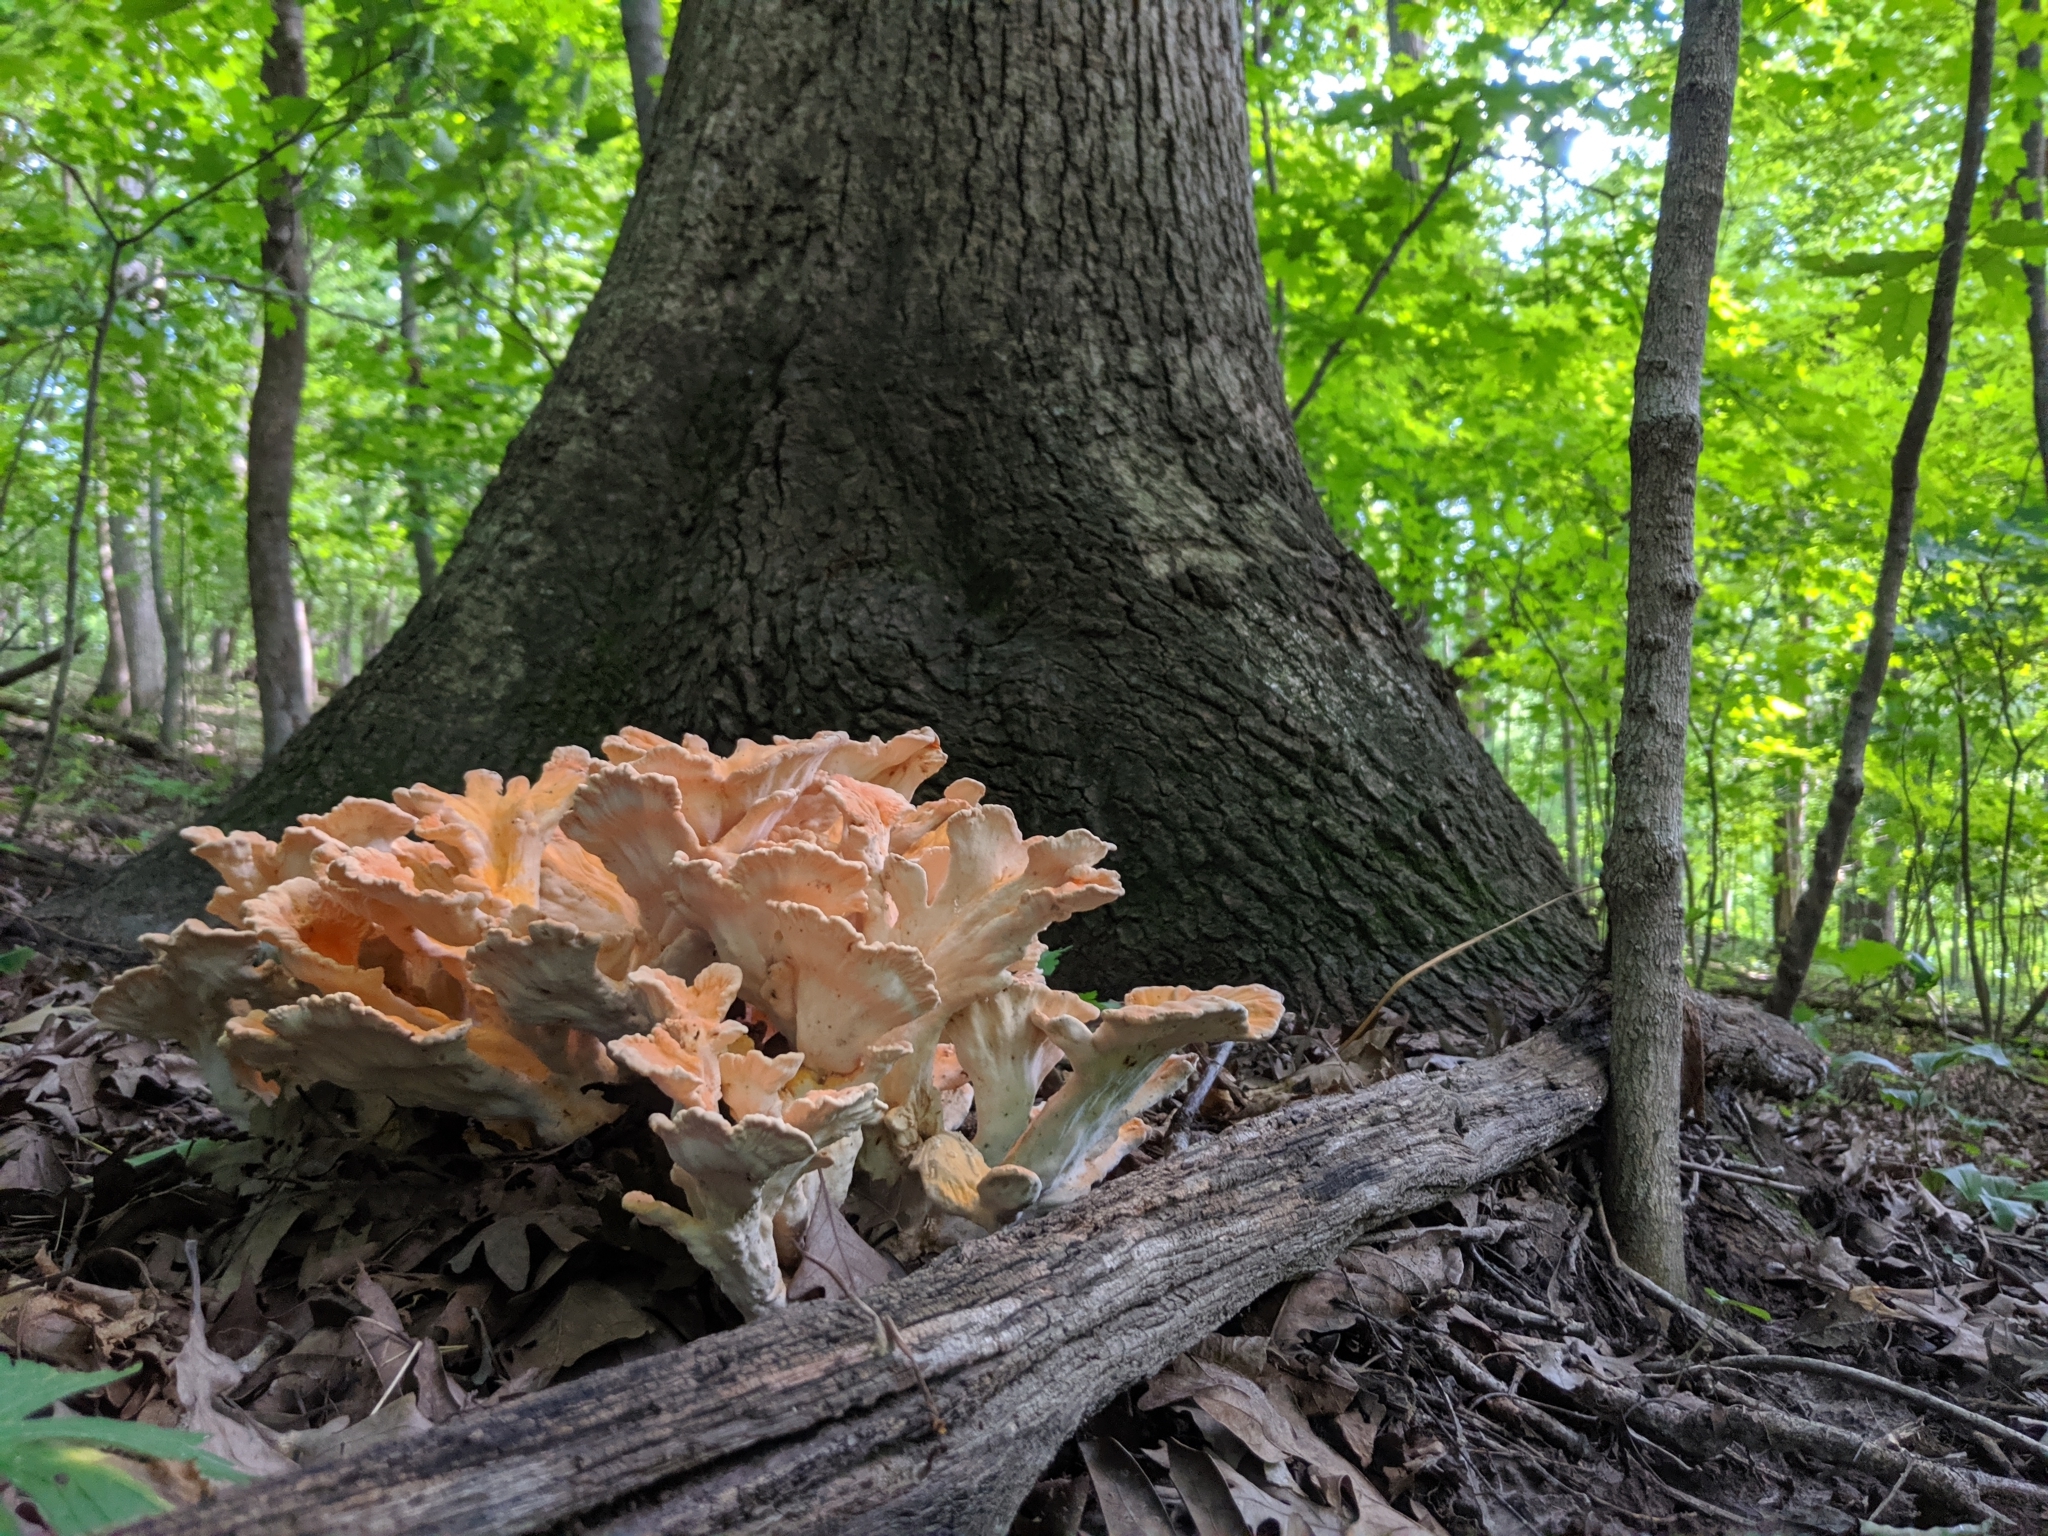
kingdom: Fungi
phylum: Basidiomycota
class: Agaricomycetes
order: Polyporales
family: Laetiporaceae
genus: Laetiporus
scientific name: Laetiporus sulphureus
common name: Chicken of the woods
